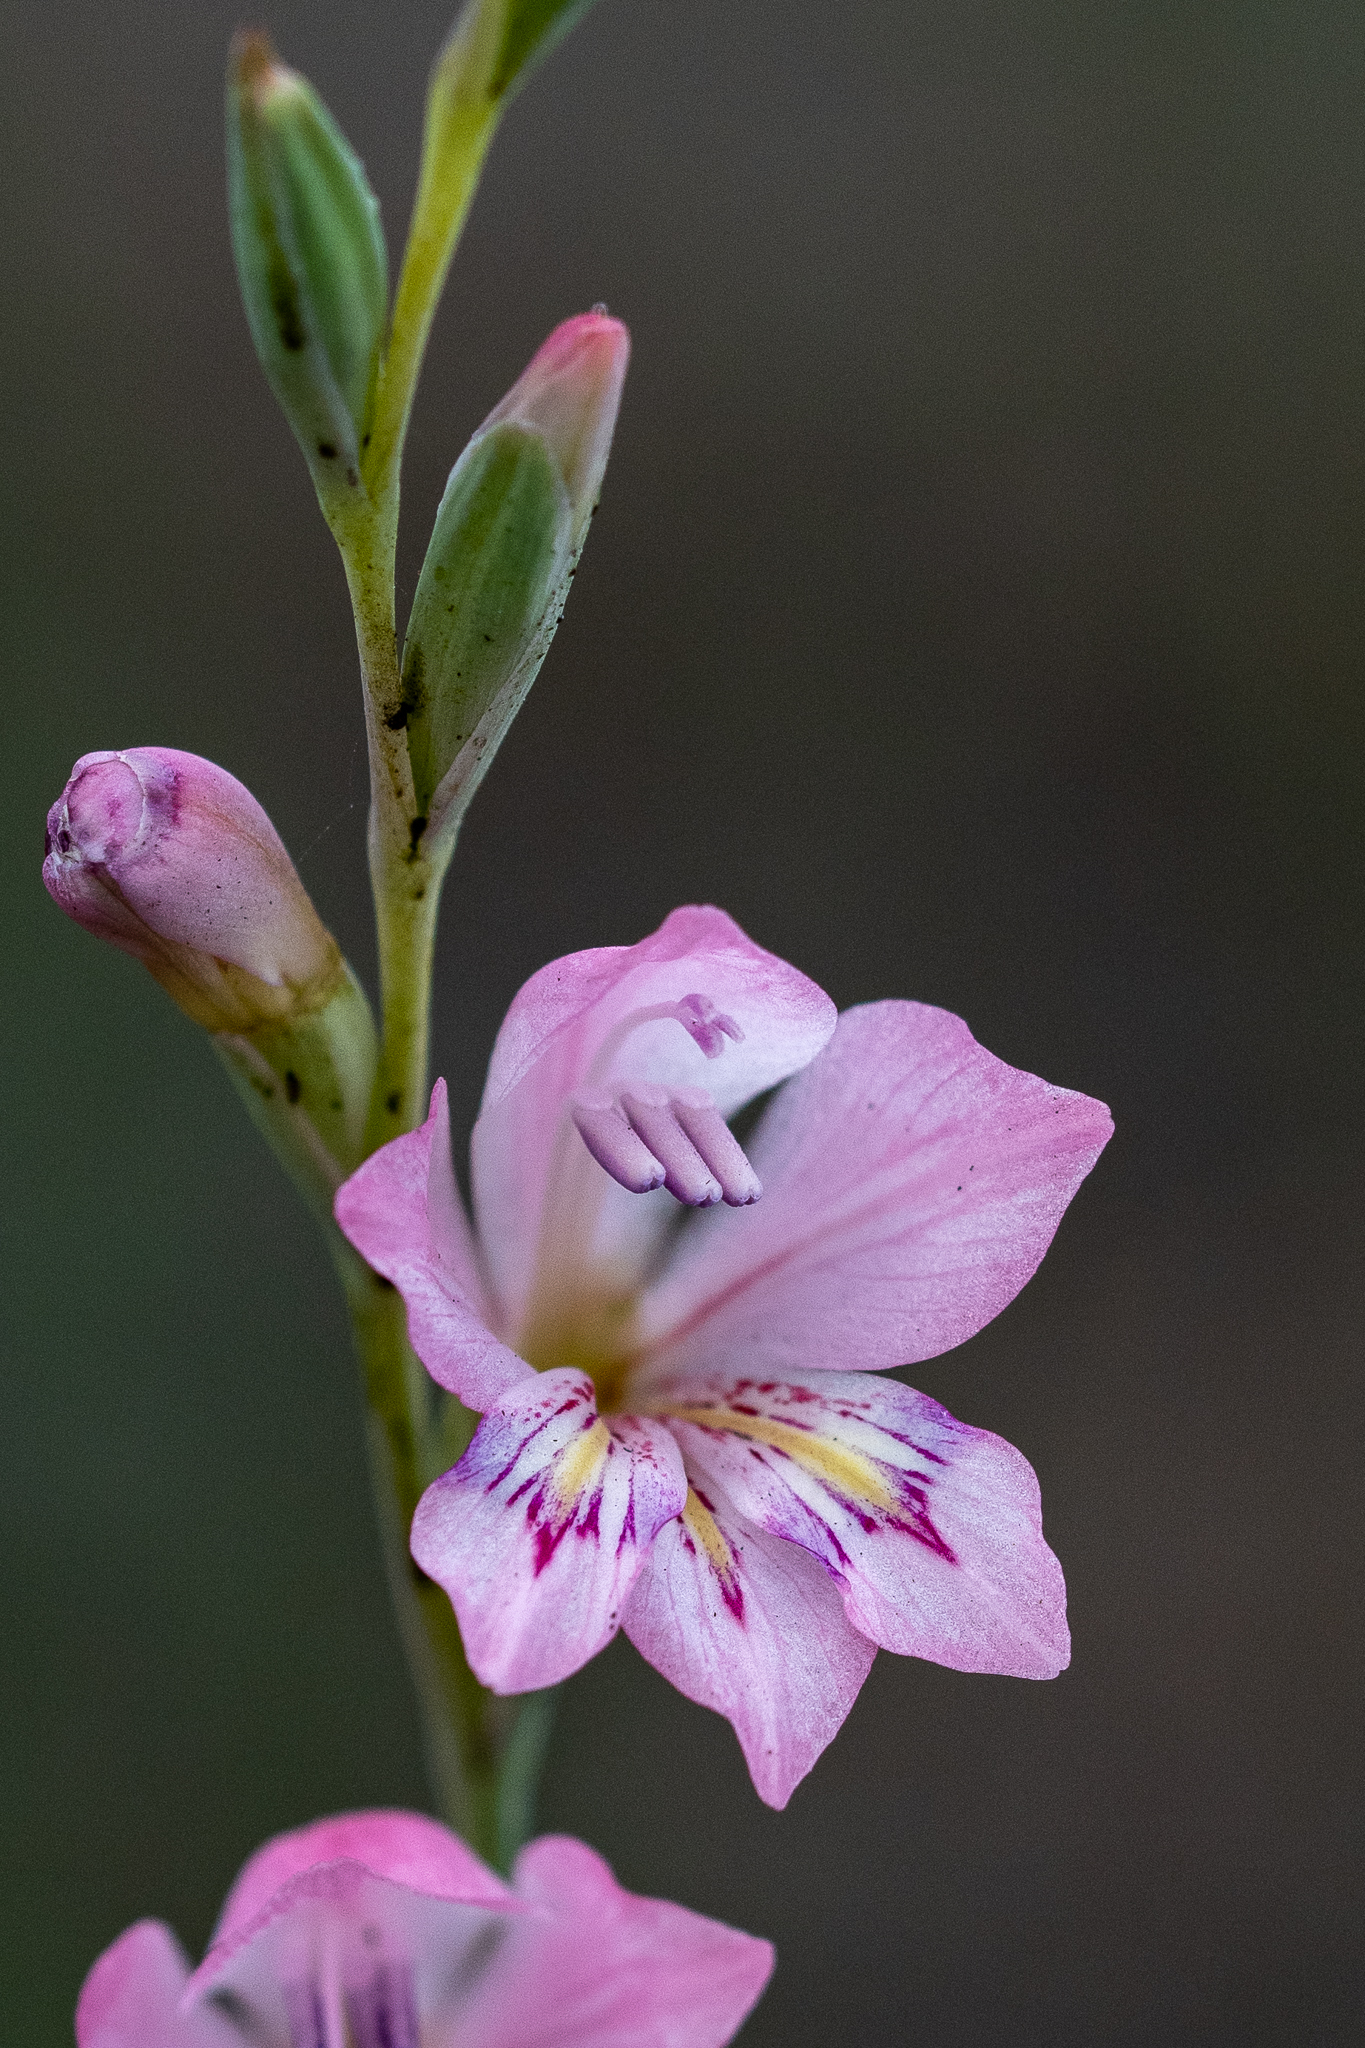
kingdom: Plantae
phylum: Tracheophyta
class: Liliopsida
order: Asparagales
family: Iridaceae
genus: Gladiolus
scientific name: Gladiolus brevifolius
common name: March pypie
